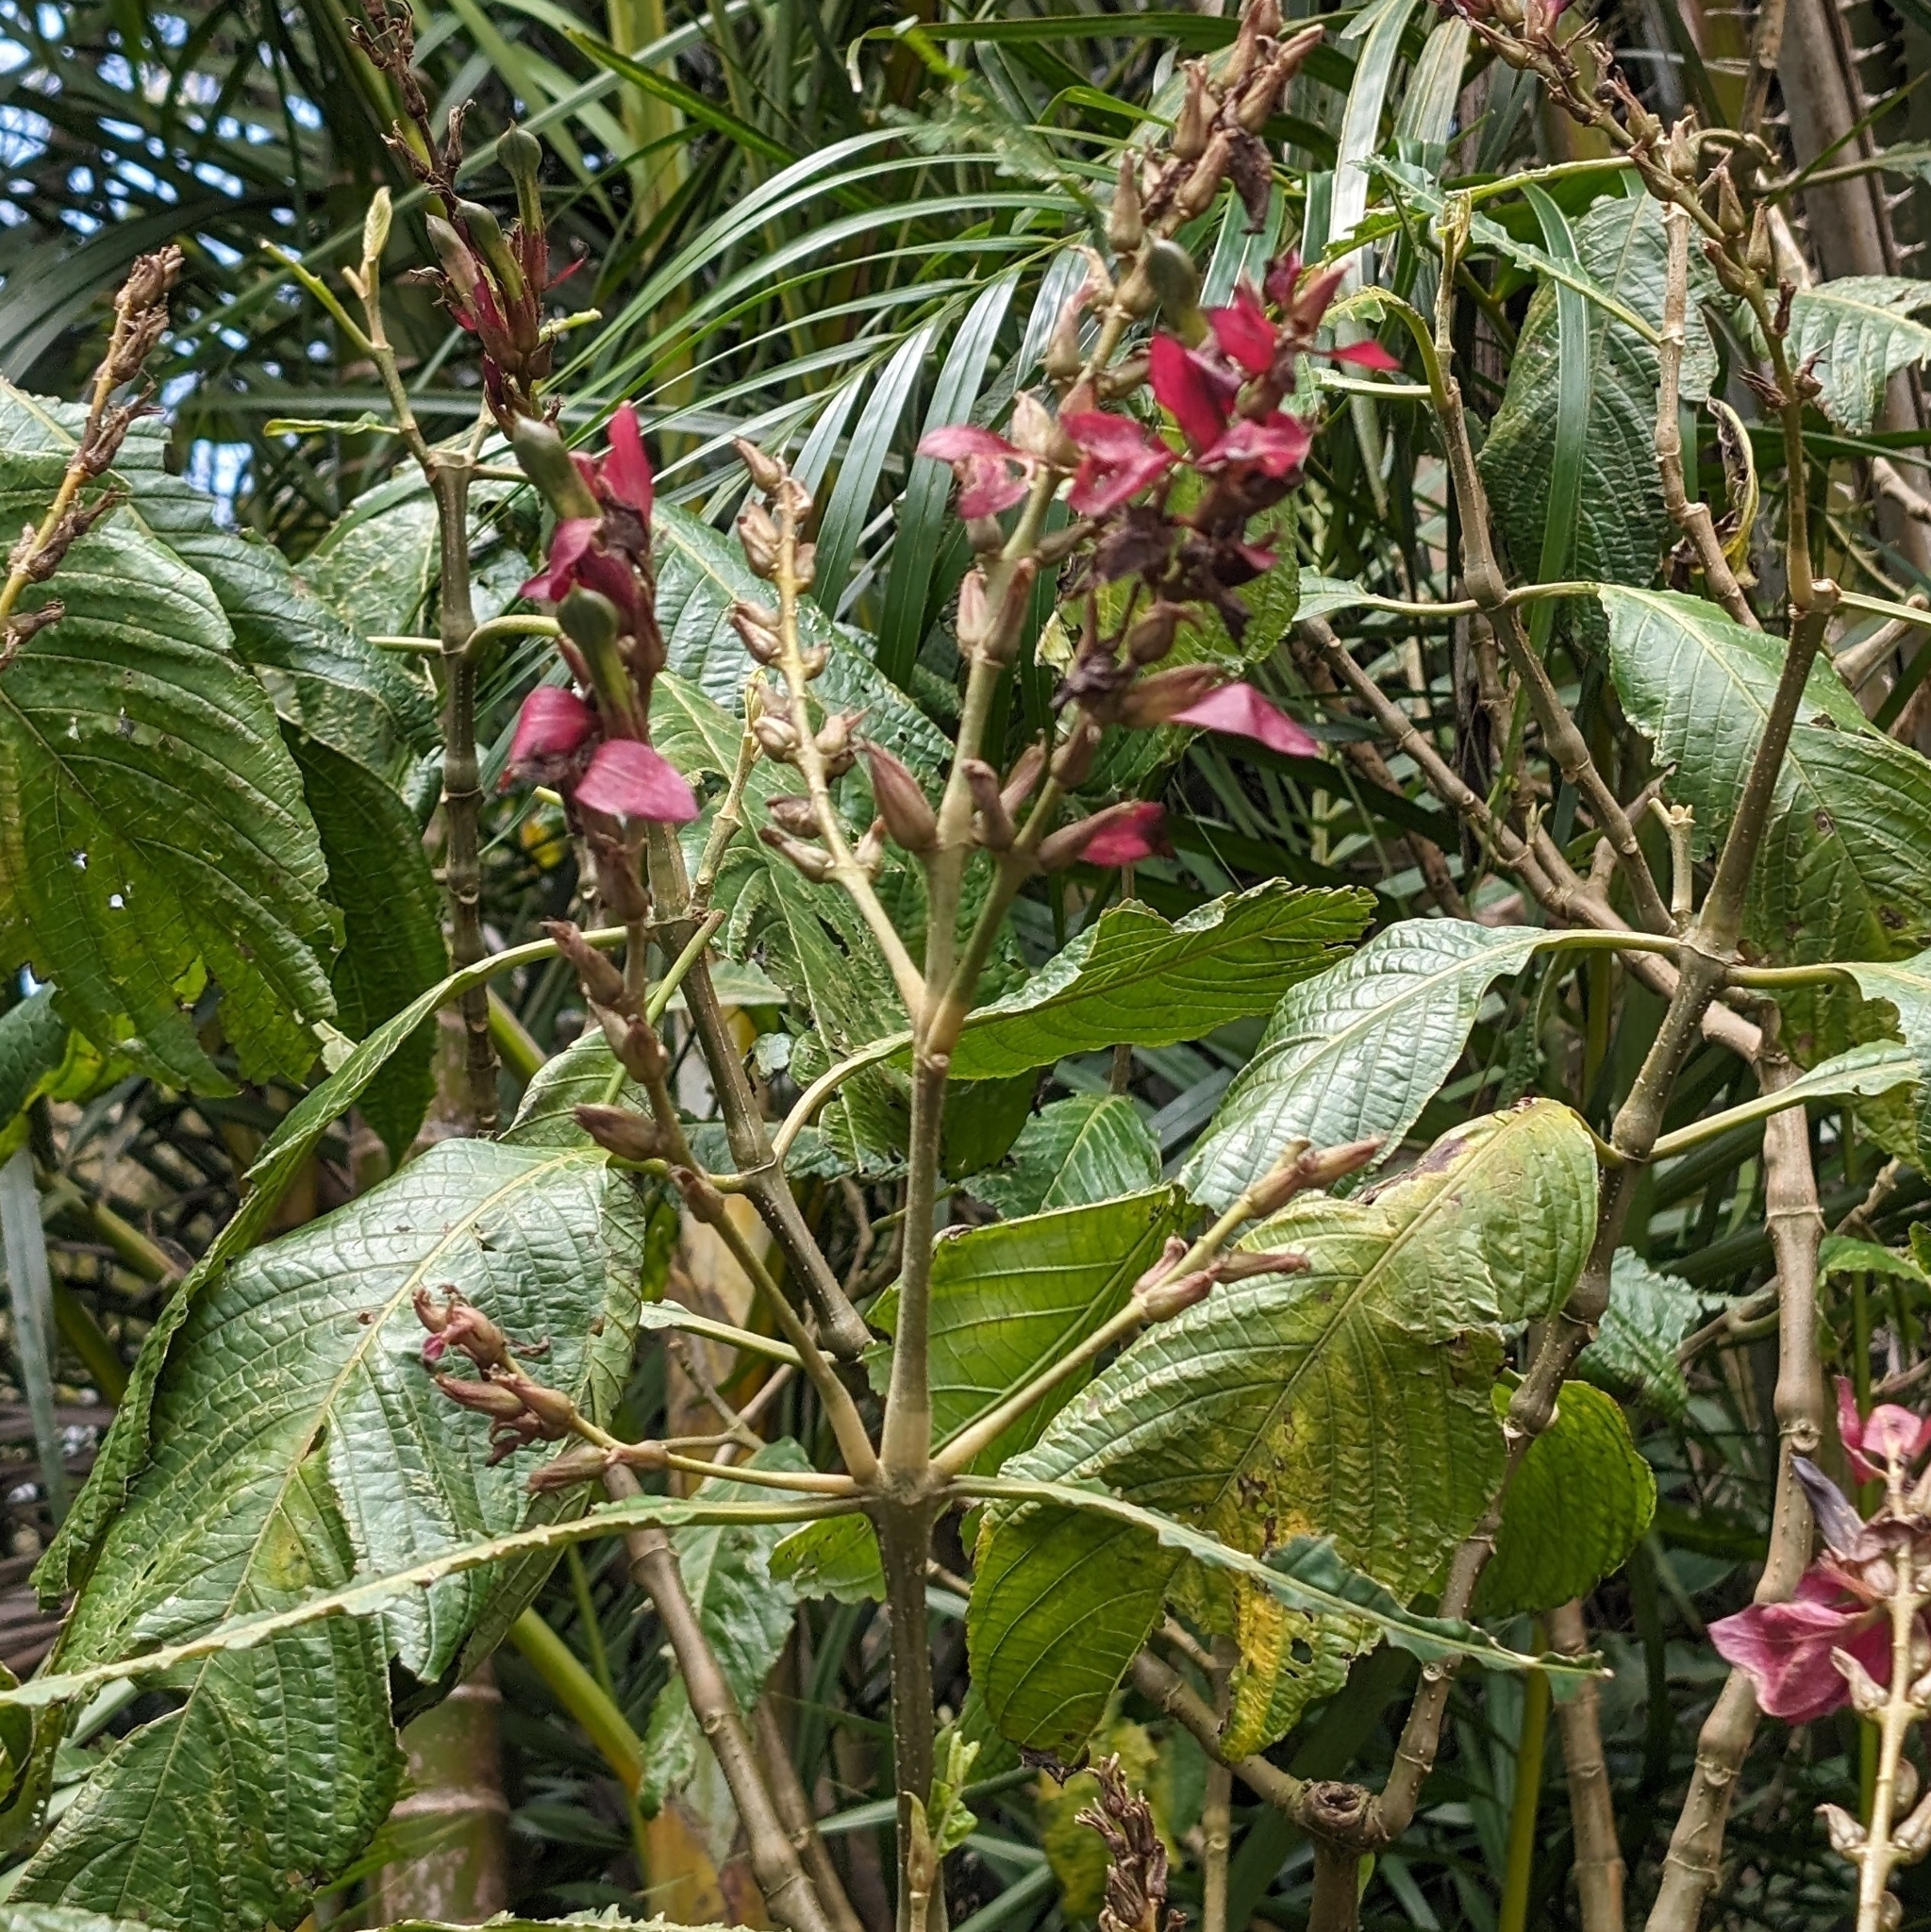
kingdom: Plantae
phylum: Tracheophyta
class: Magnoliopsida
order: Lamiales
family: Acanthaceae
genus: Megaskepasma
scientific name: Megaskepasma erythrochlamys
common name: Brazilian red-cloak
